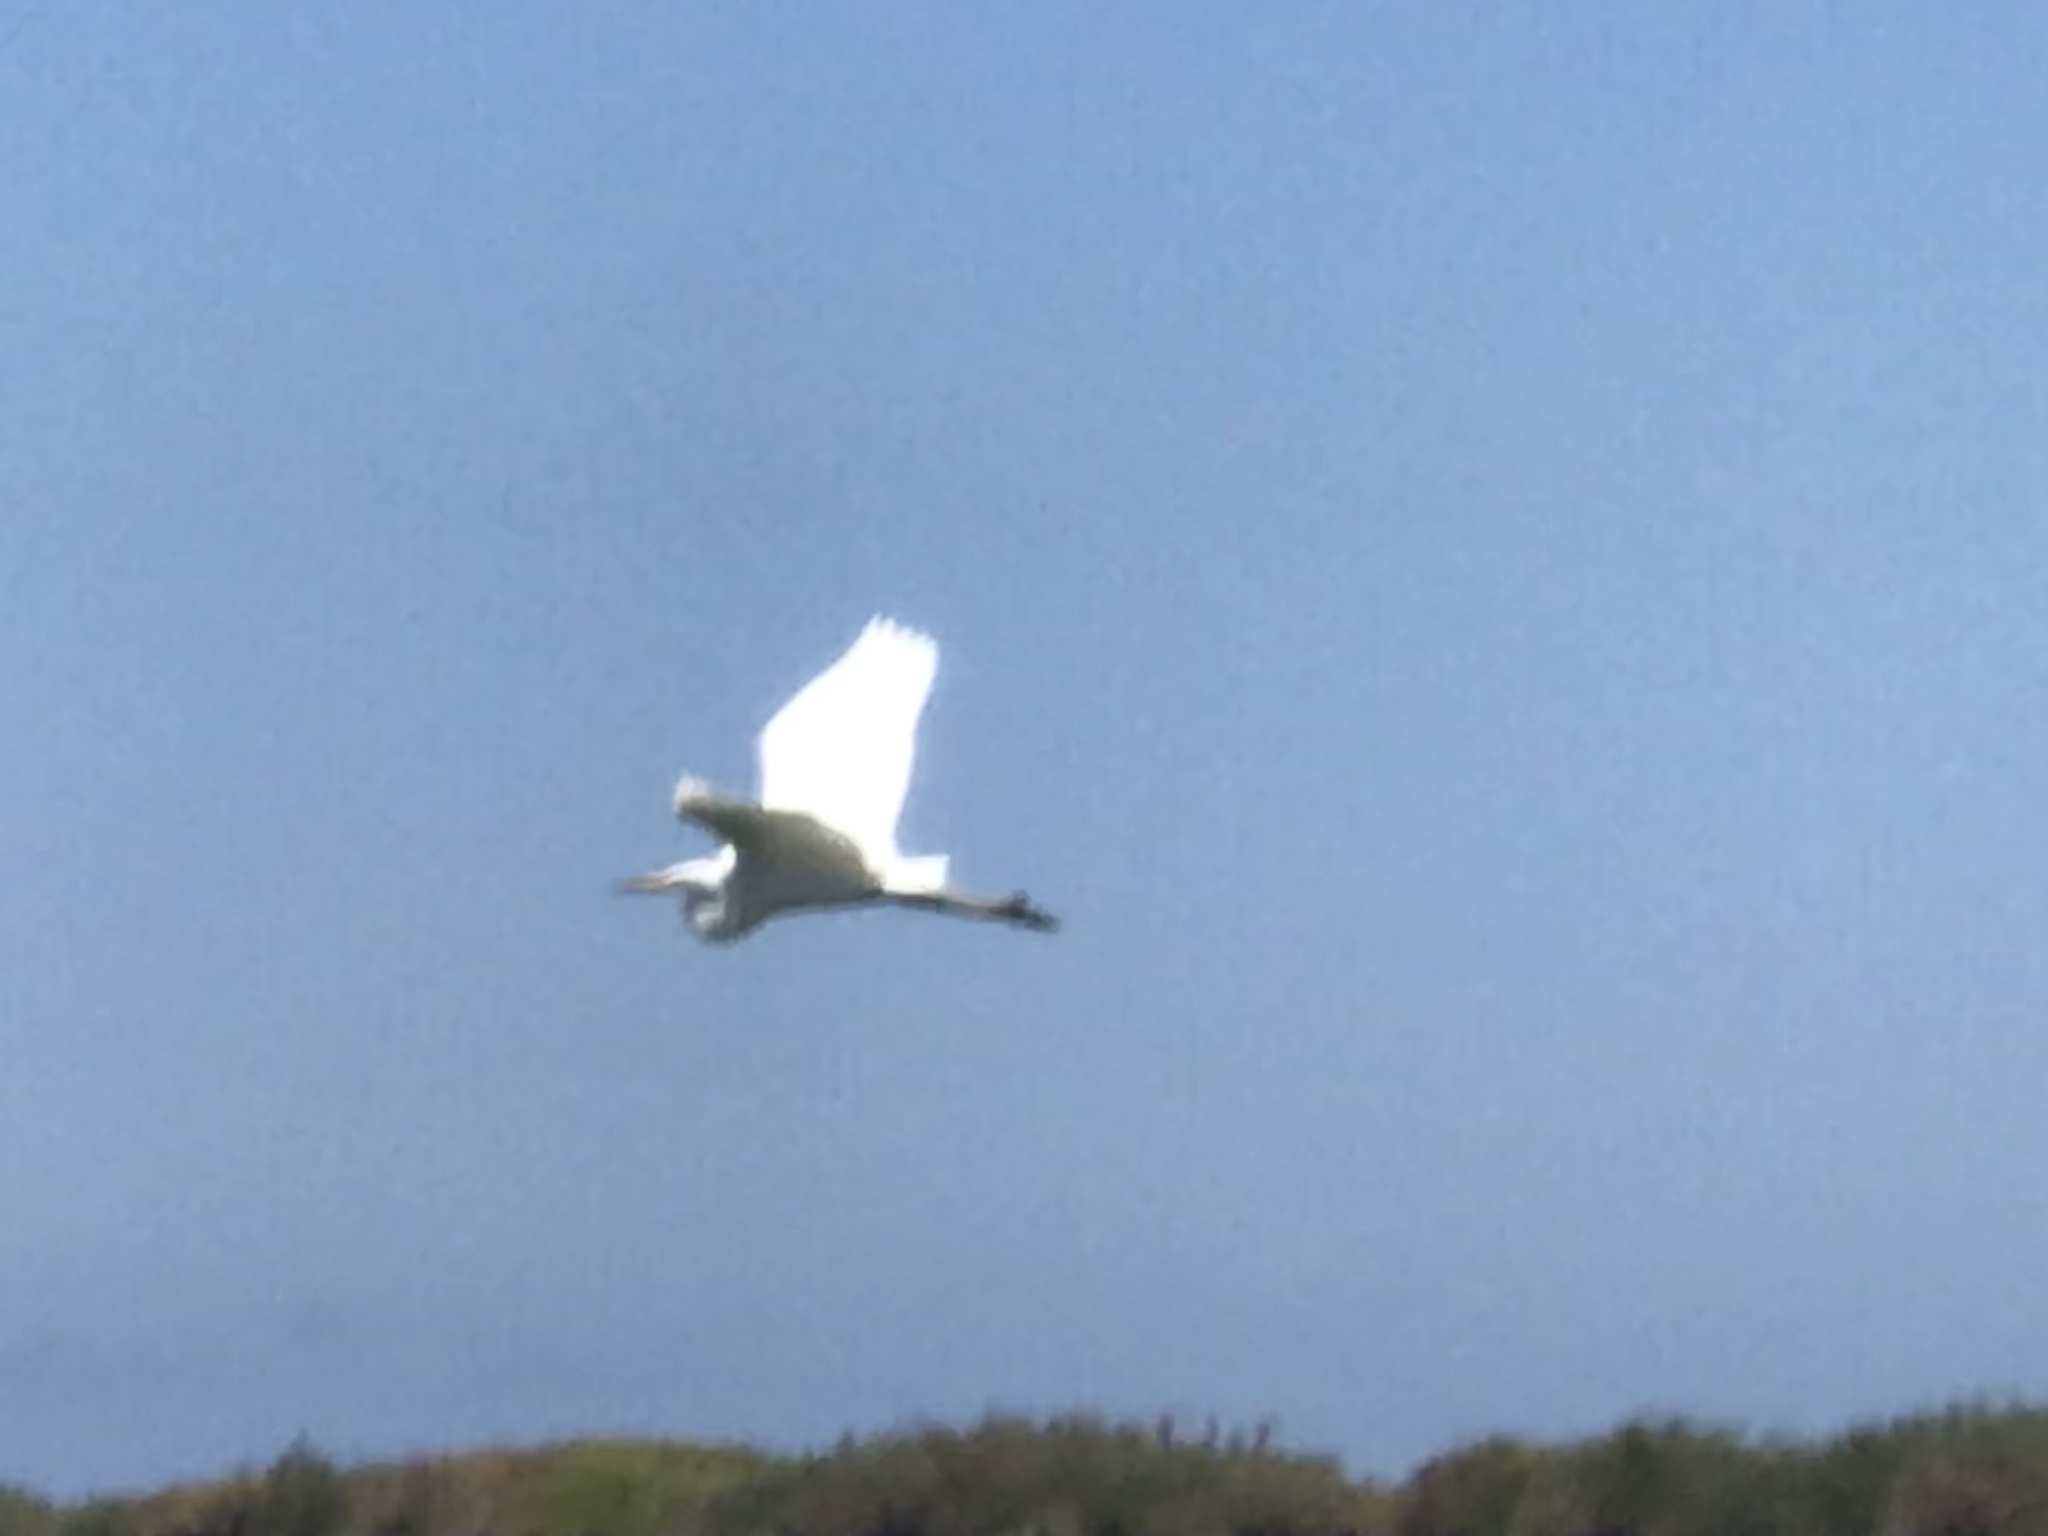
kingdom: Animalia
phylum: Chordata
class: Aves
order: Pelecaniformes
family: Ardeidae
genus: Ardea
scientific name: Ardea alba
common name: Great egret
